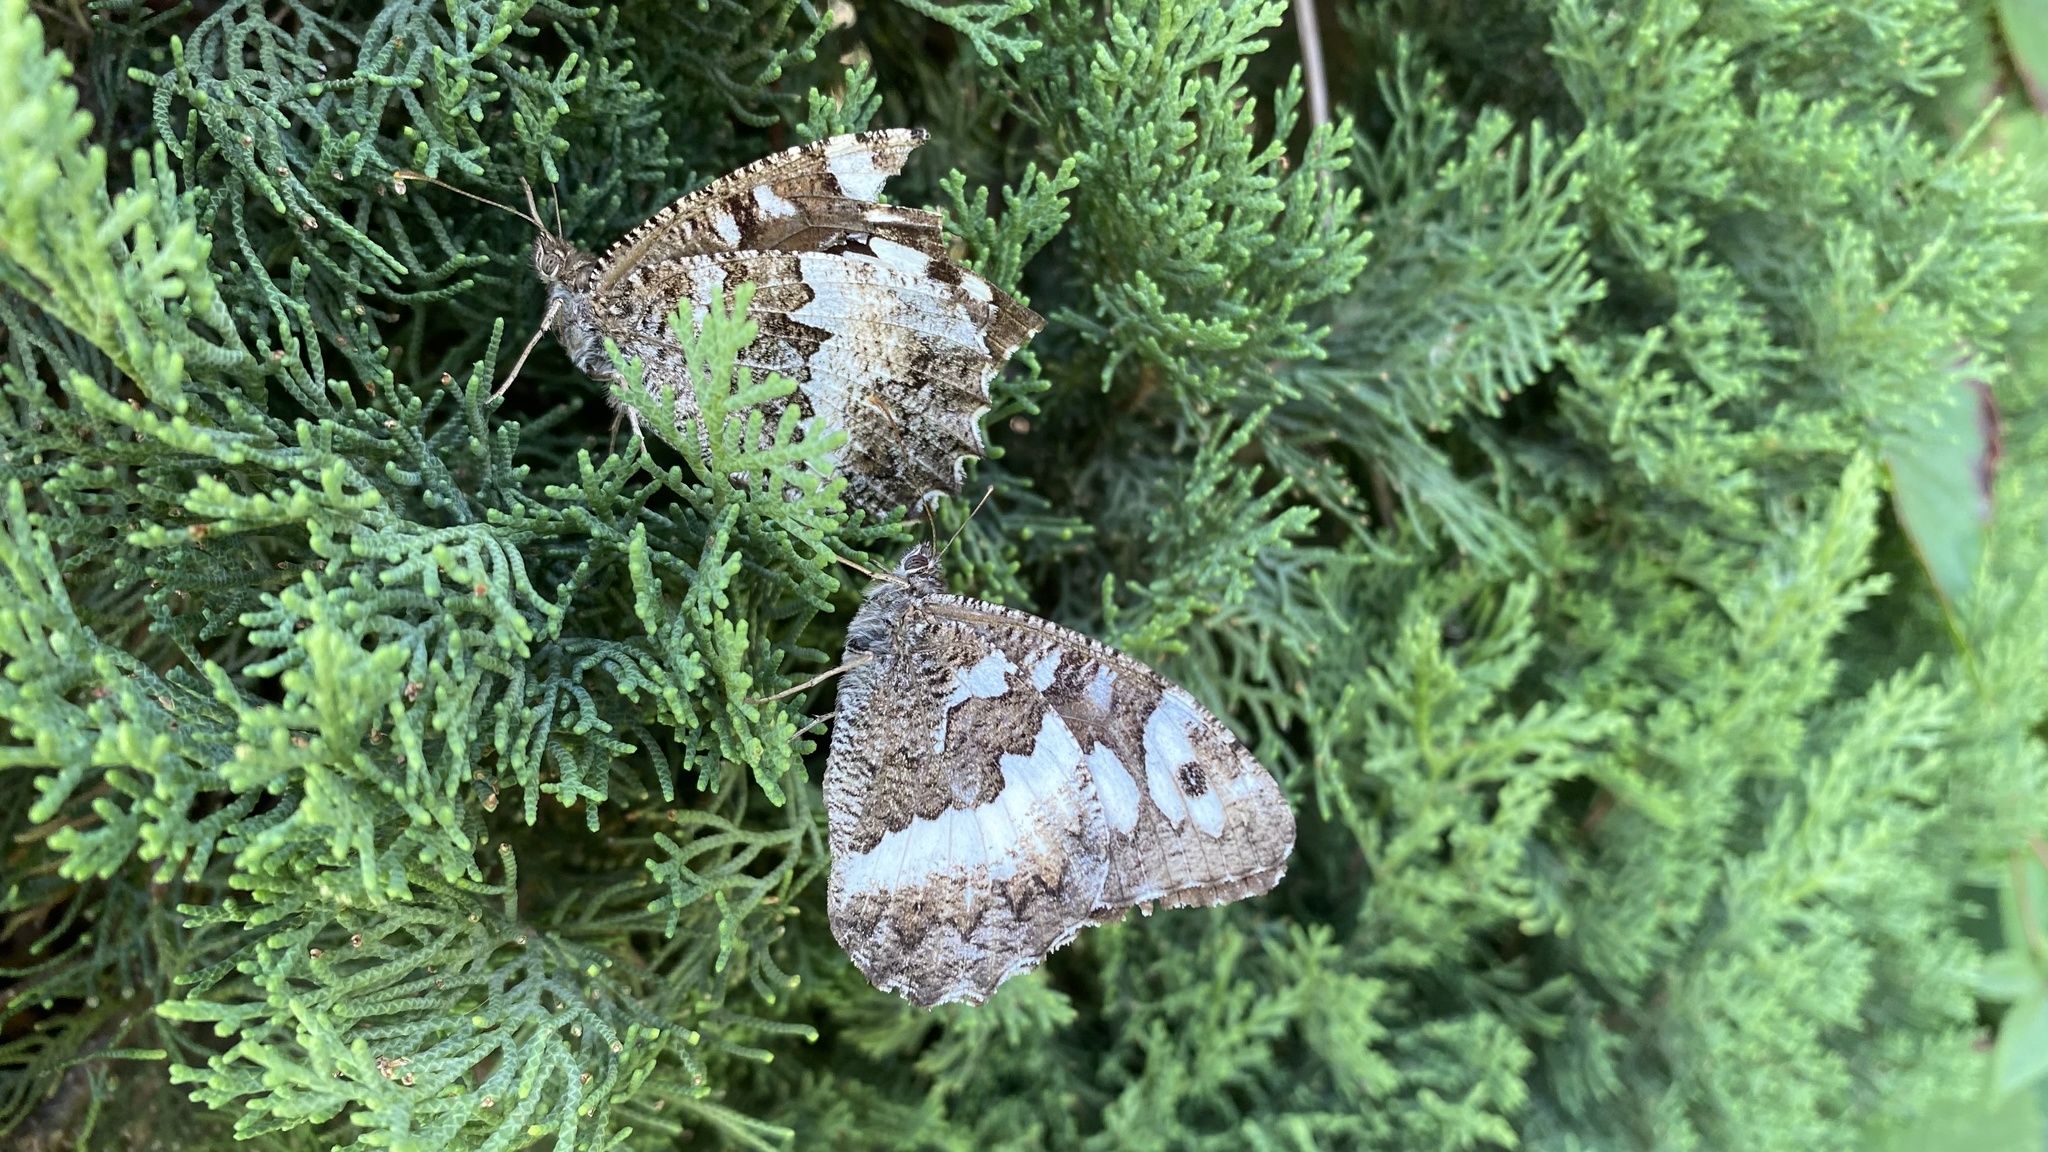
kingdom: Animalia
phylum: Arthropoda
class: Insecta
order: Lepidoptera
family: Lycaenidae
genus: Loweia
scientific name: Loweia tityrus
